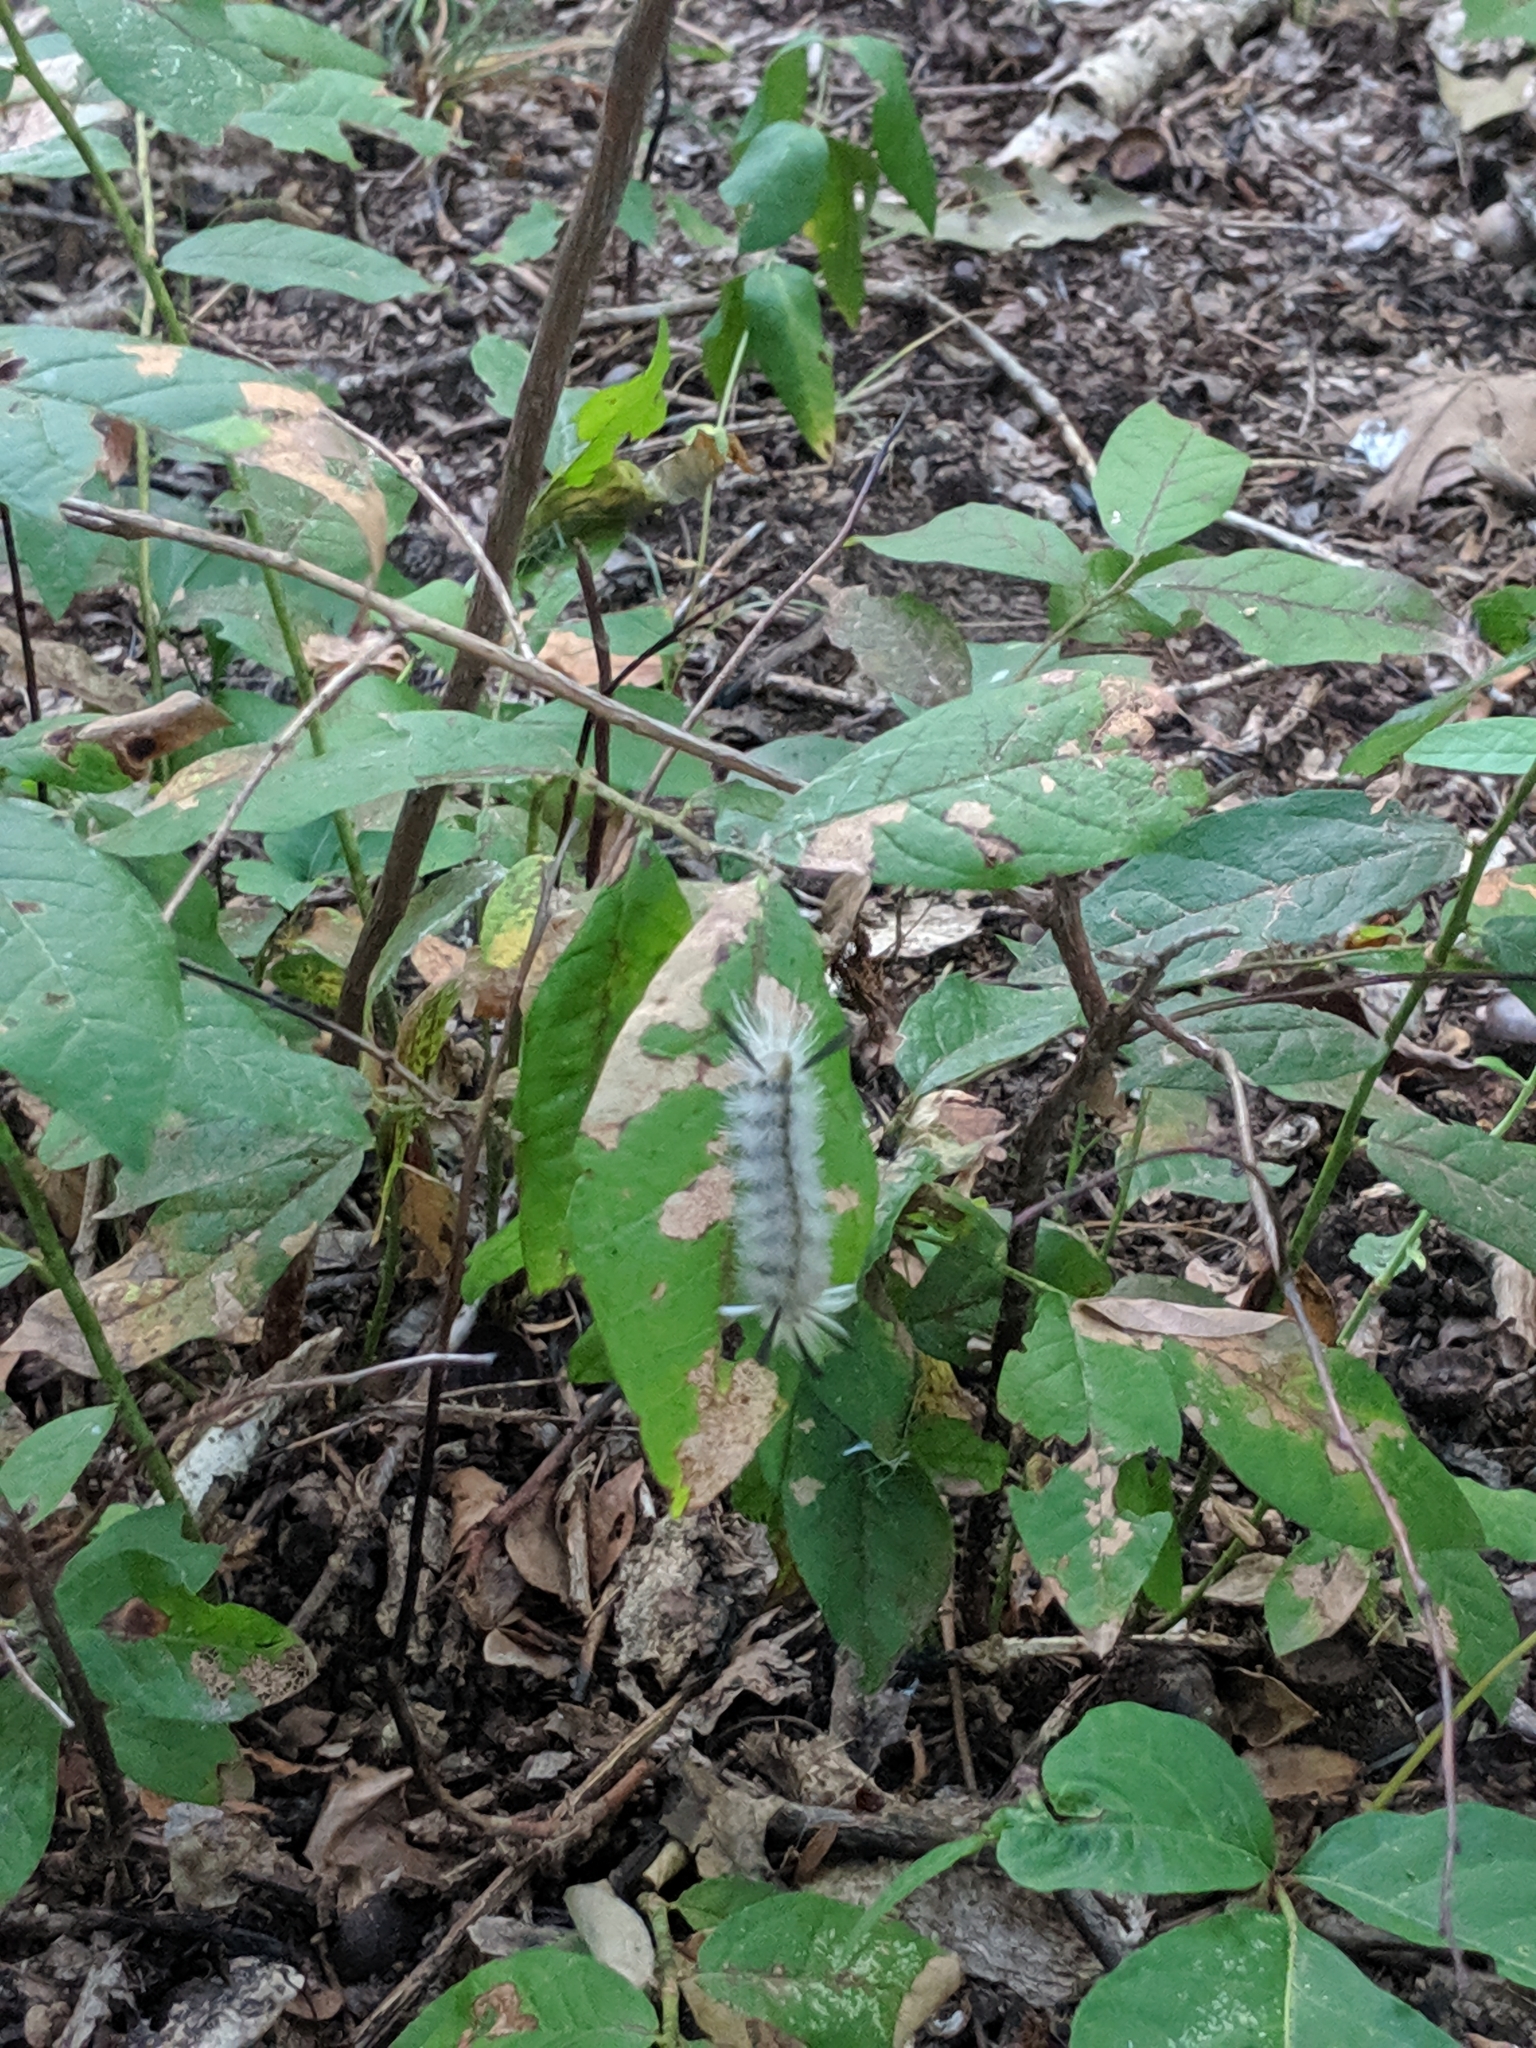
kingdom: Animalia
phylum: Arthropoda
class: Insecta
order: Lepidoptera
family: Erebidae
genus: Halysidota
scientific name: Halysidota tessellaris
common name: Banded tussock moth
